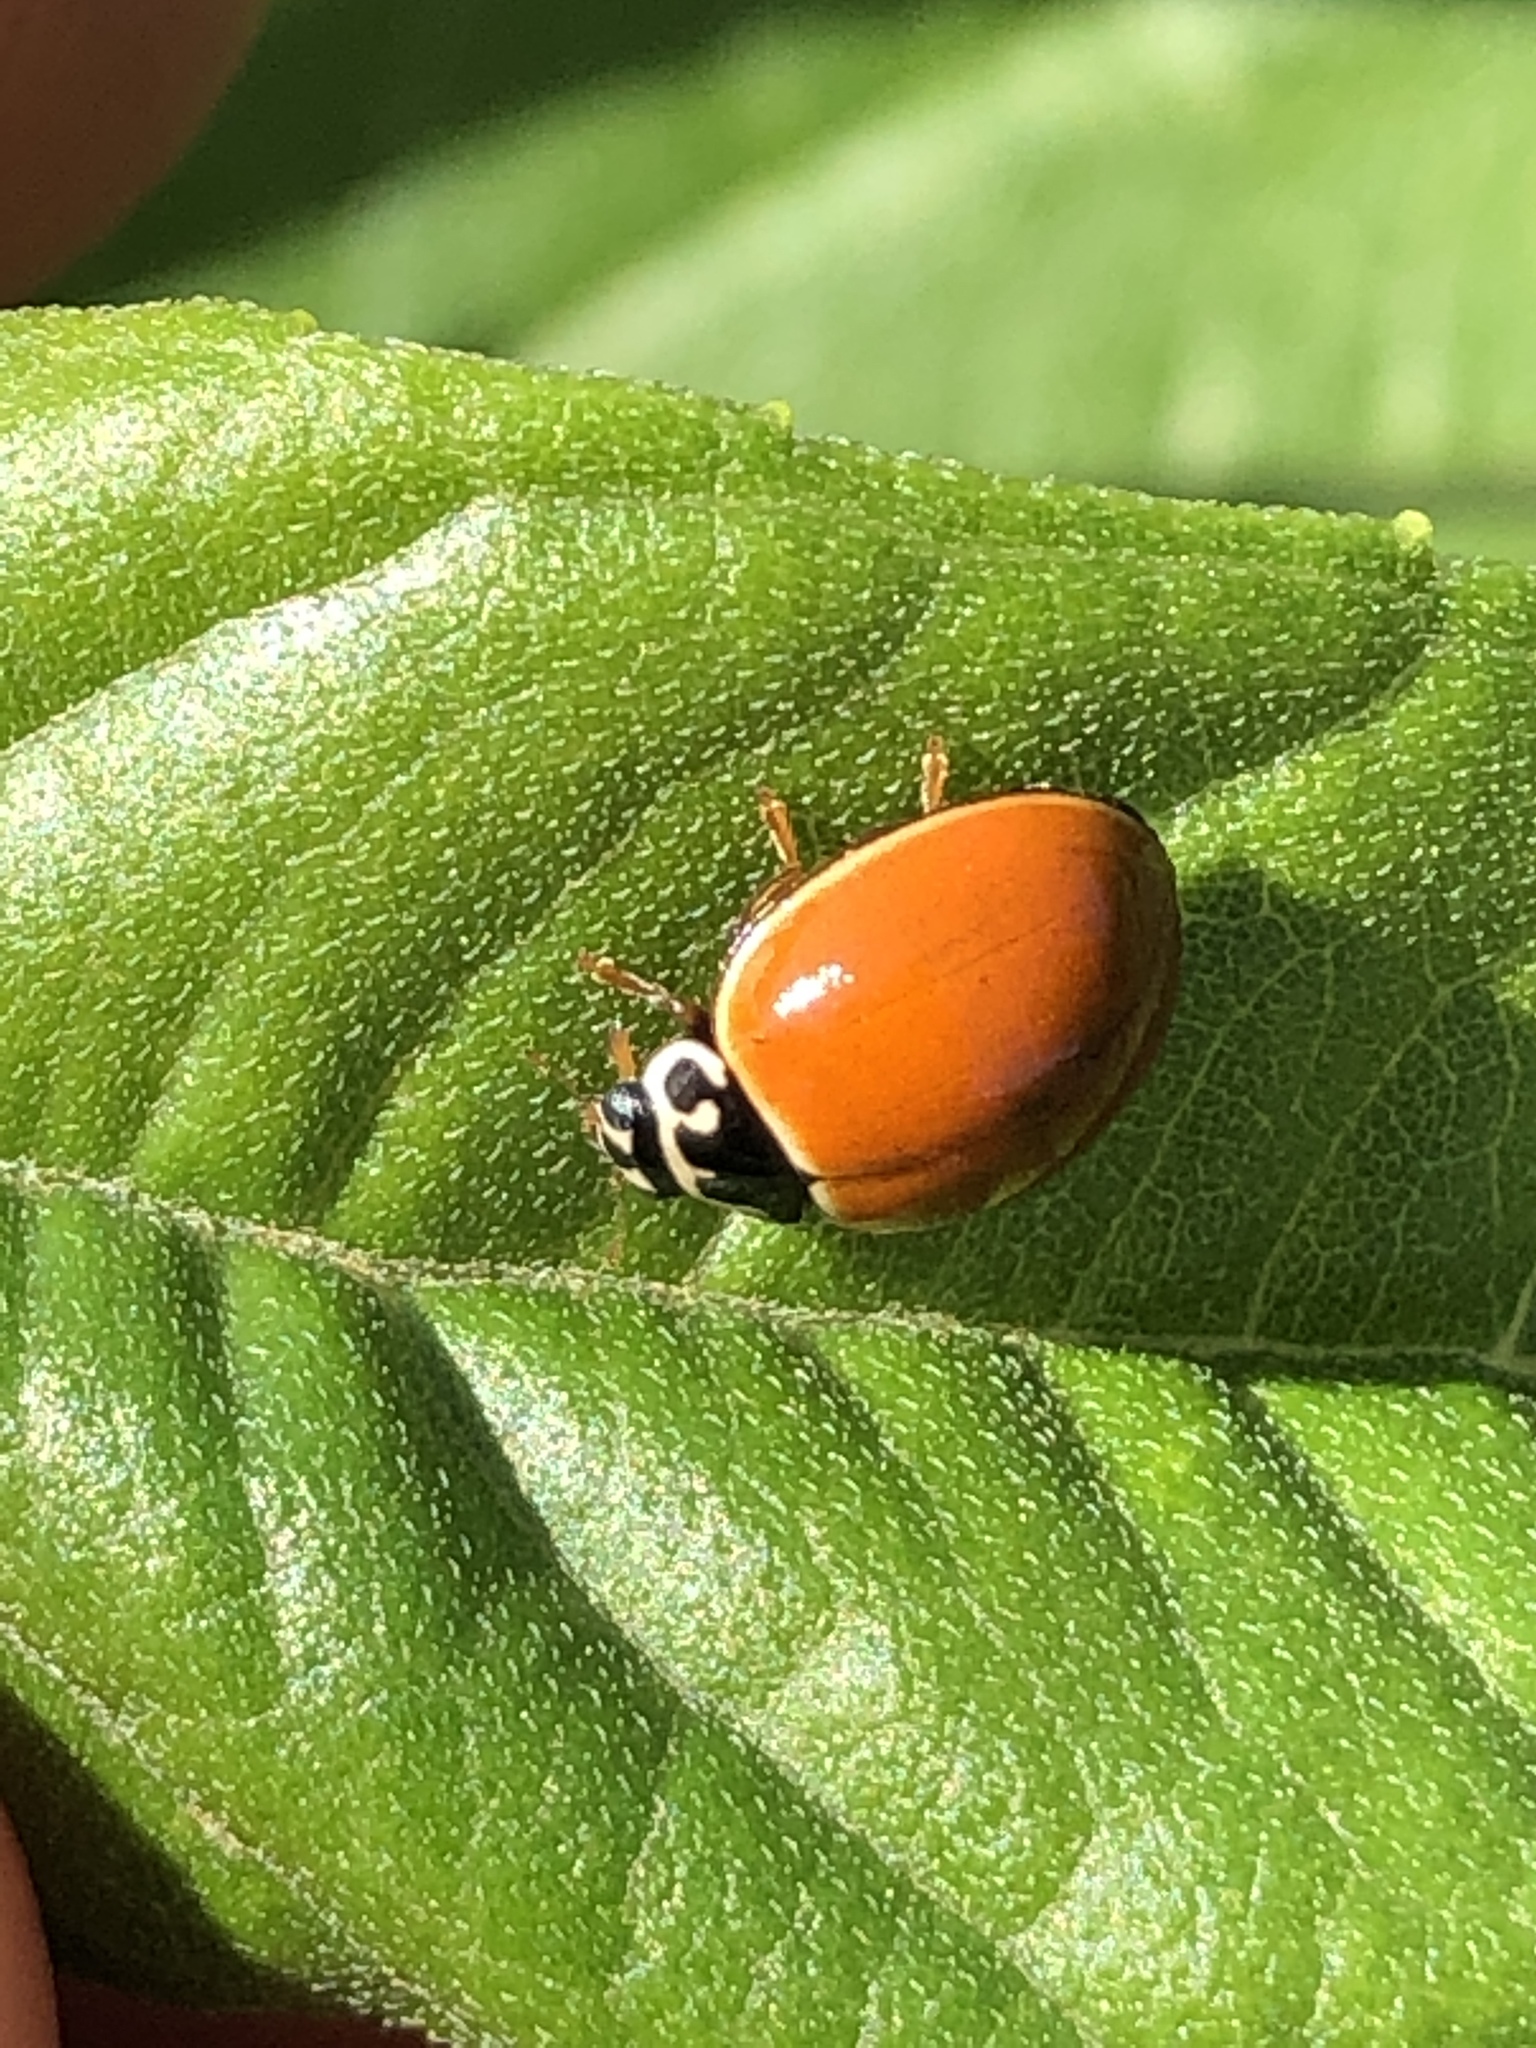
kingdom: Animalia
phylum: Arthropoda
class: Insecta
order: Coleoptera
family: Coccinellidae
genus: Cycloneda
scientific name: Cycloneda munda
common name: Polished lady beetle
